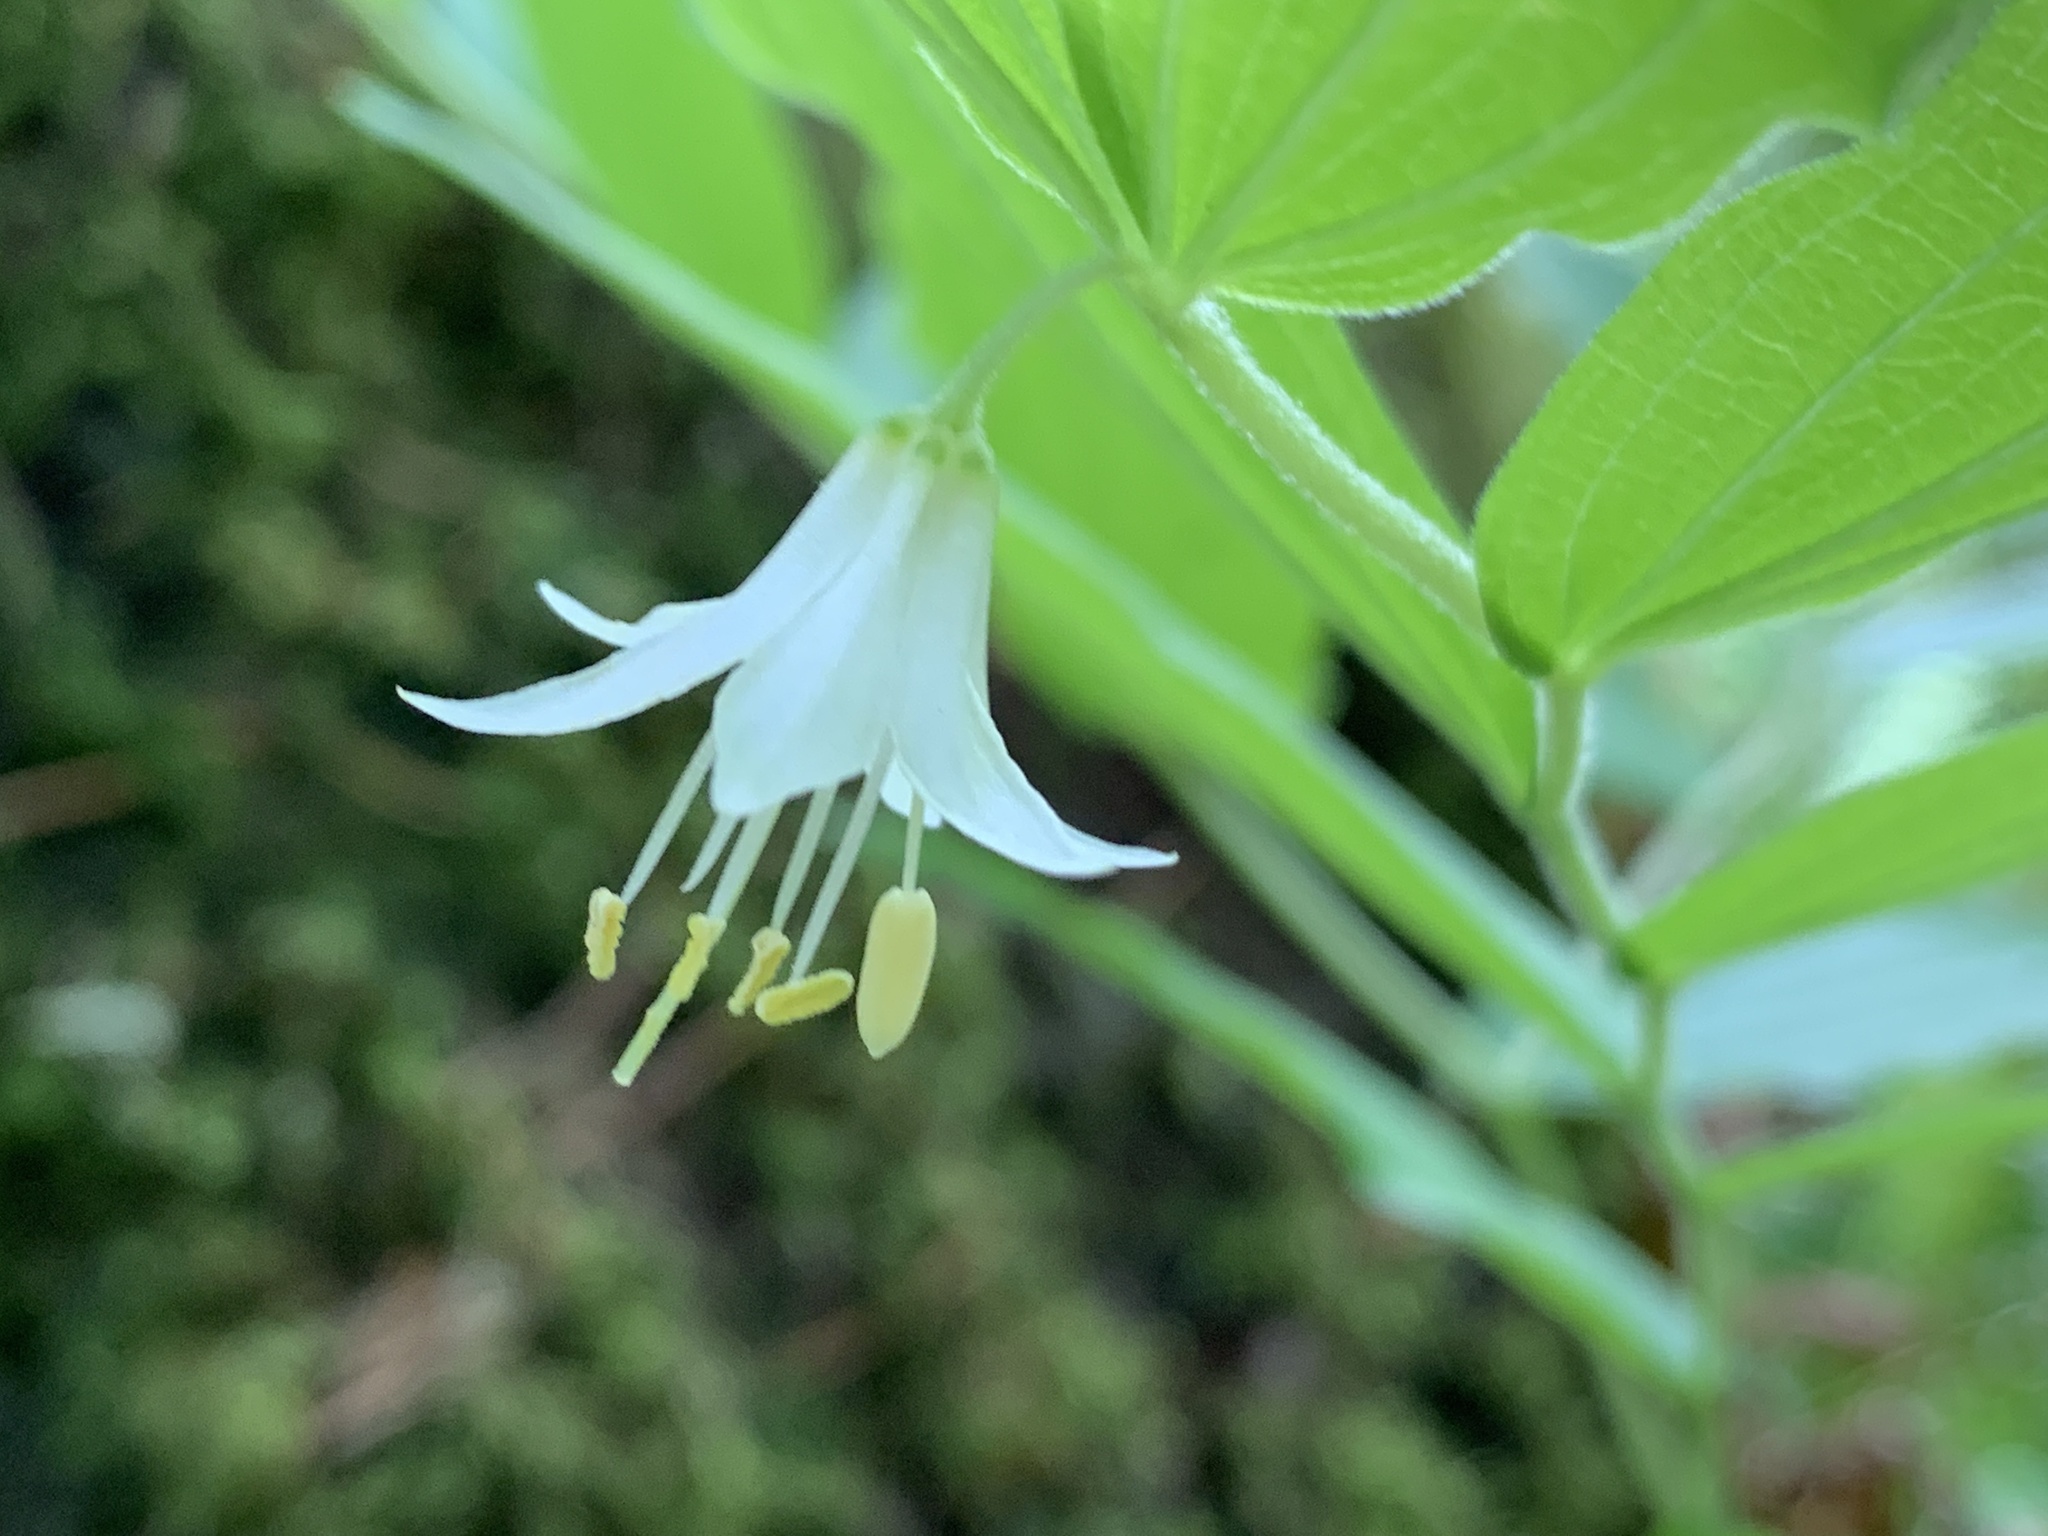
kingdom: Plantae
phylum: Tracheophyta
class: Liliopsida
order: Liliales
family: Liliaceae
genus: Prosartes
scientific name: Prosartes hookeri
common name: Fairy-bells
